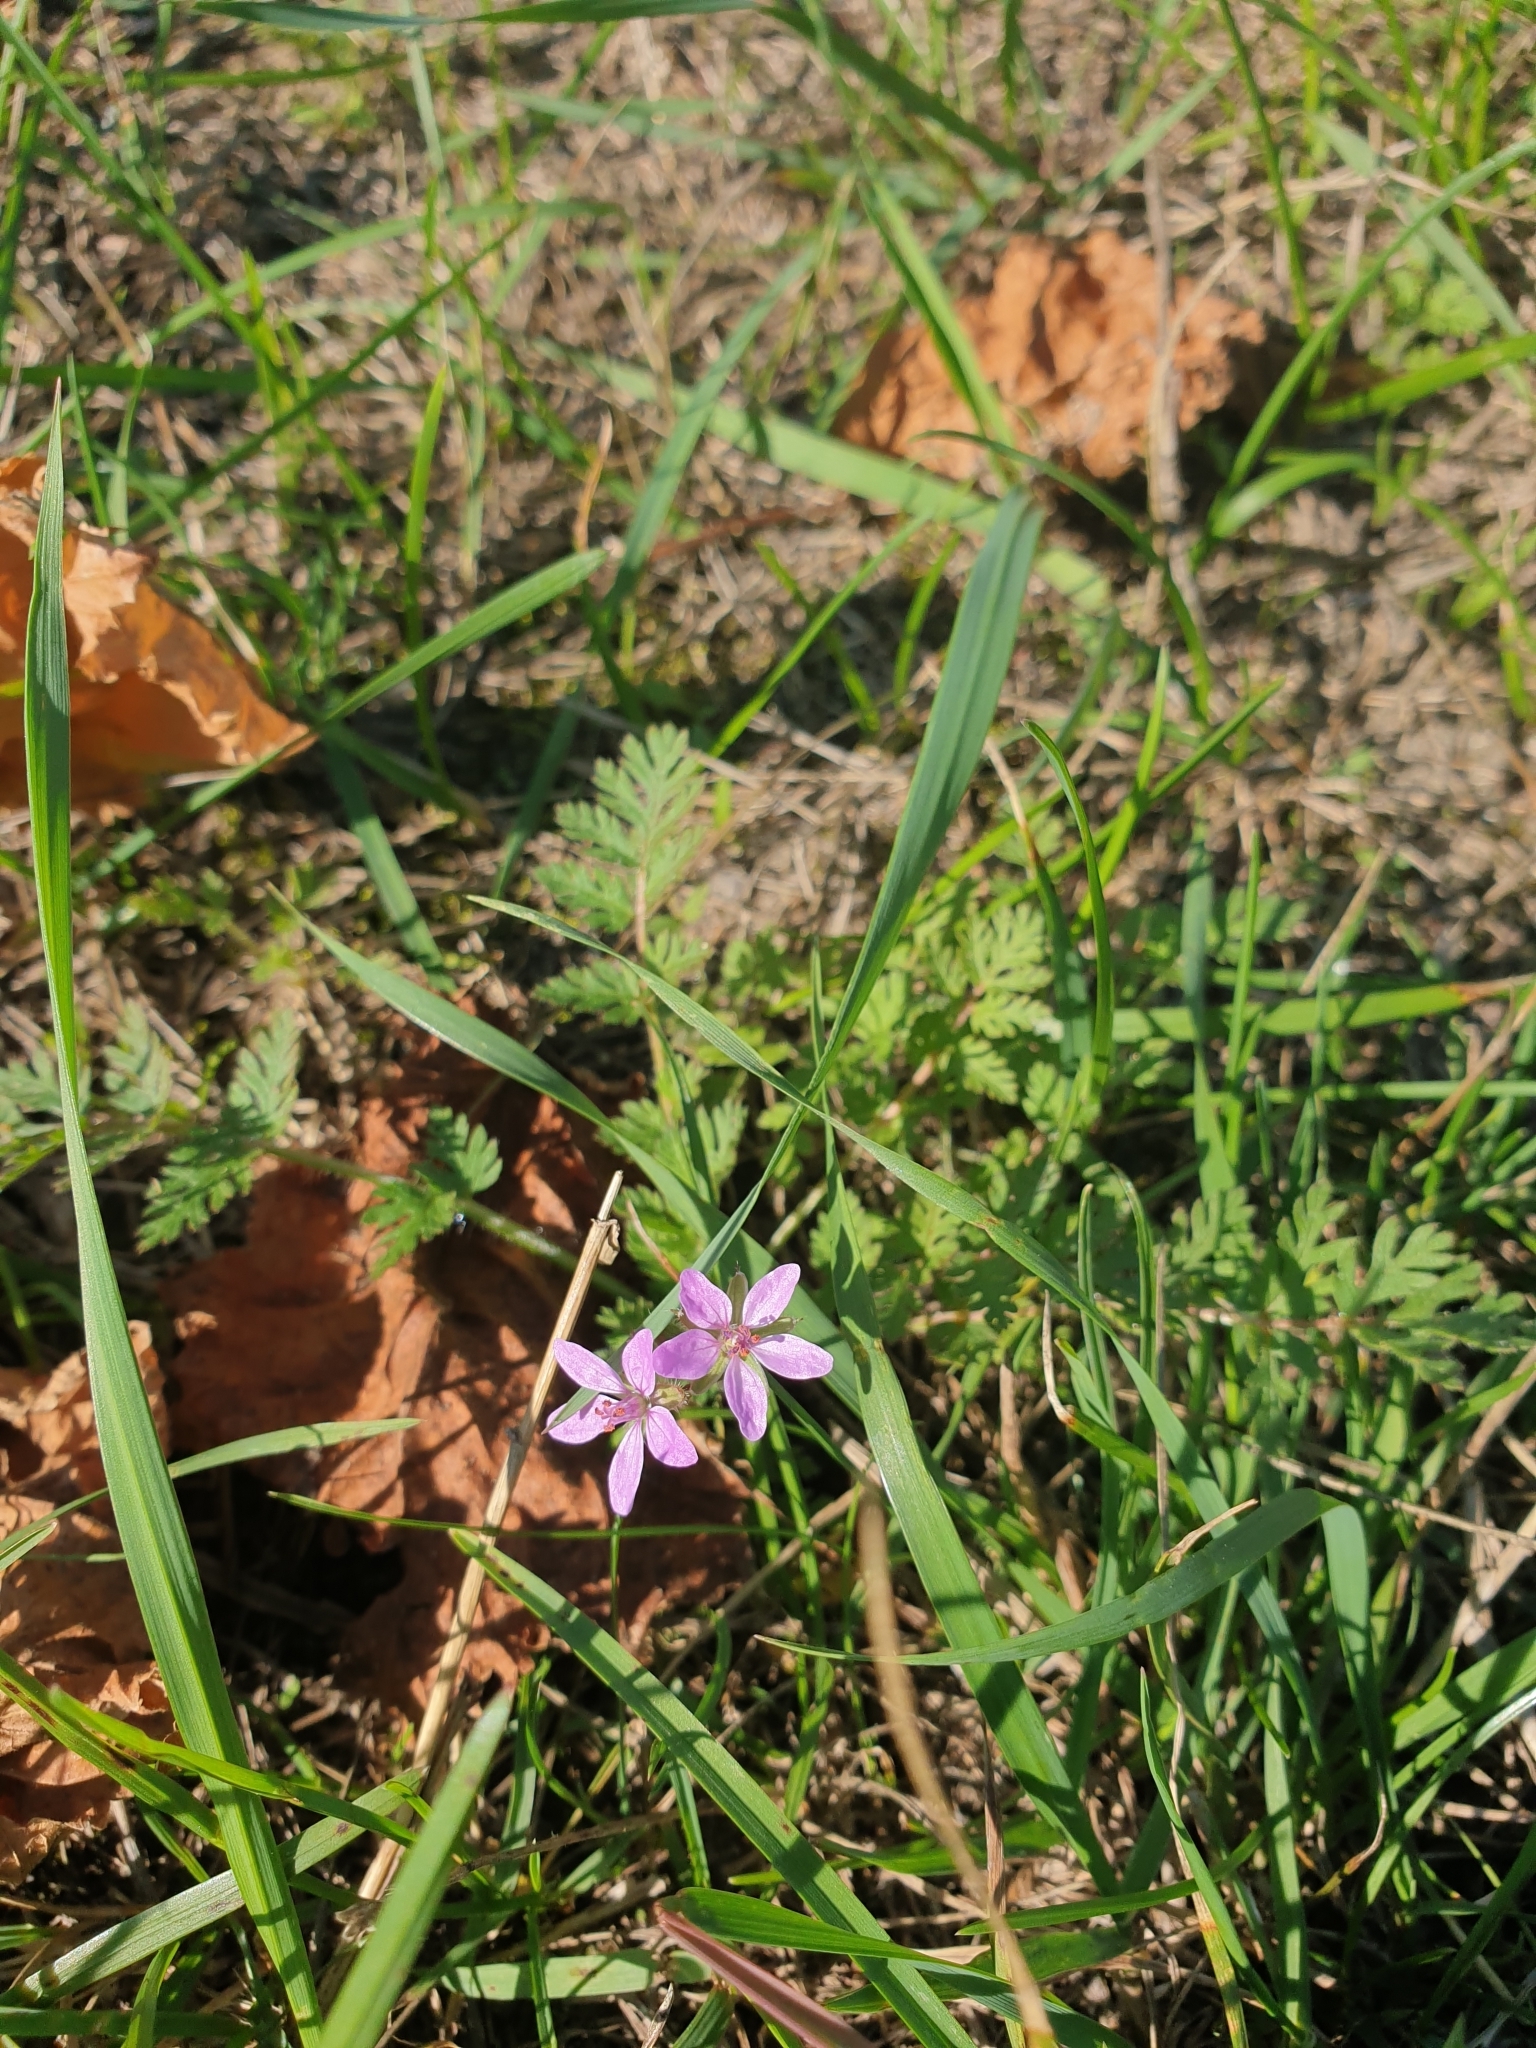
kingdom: Plantae
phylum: Tracheophyta
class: Magnoliopsida
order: Geraniales
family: Geraniaceae
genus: Erodium
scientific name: Erodium cicutarium
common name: Common stork's-bill
